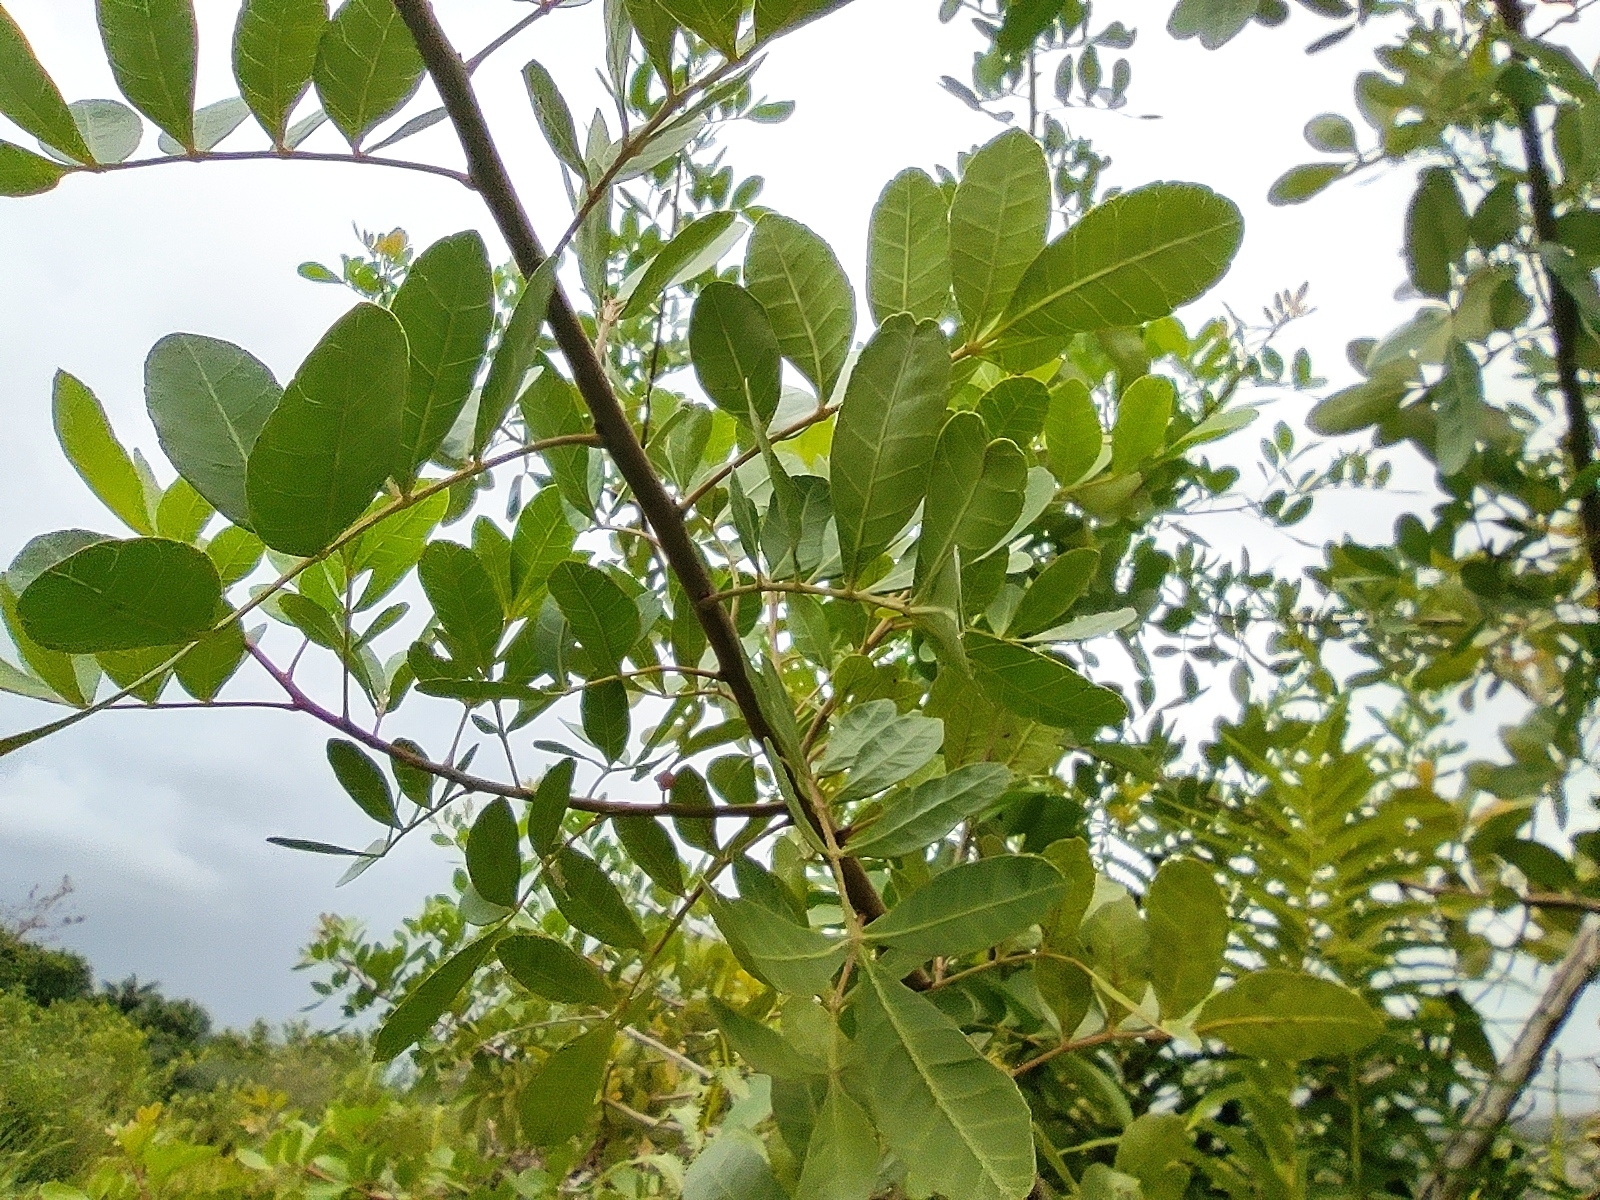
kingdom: Plantae
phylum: Tracheophyta
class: Magnoliopsida
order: Sapindales
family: Anacardiaceae
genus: Schinus
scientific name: Schinus terebinthifolia
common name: Brazilian peppertree
